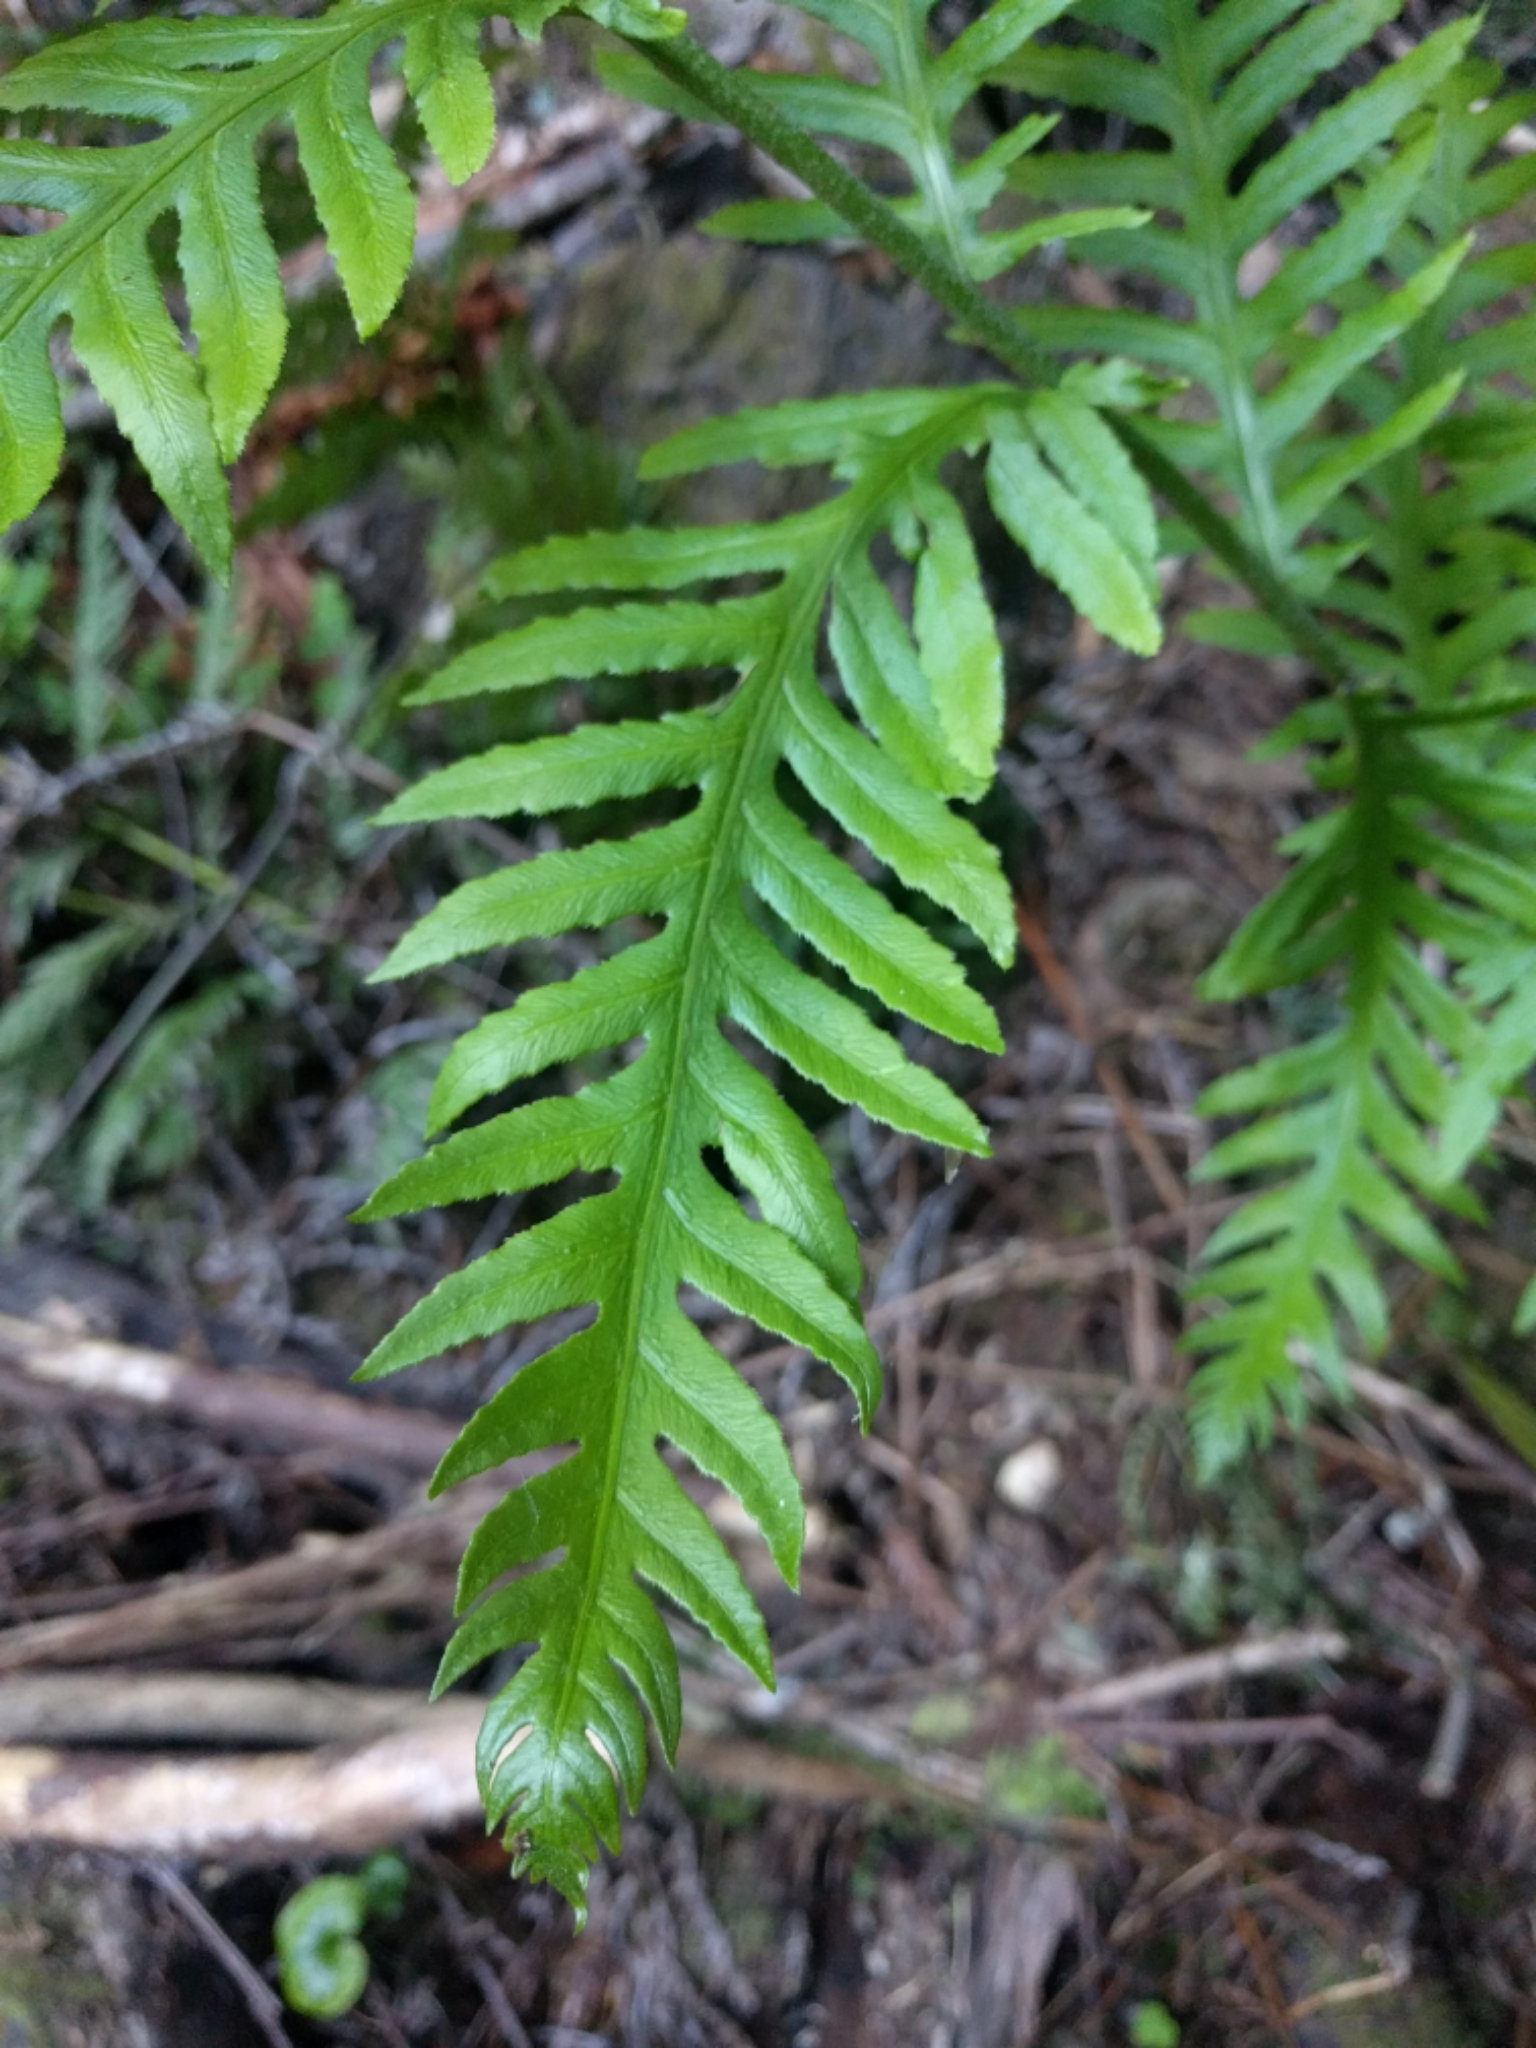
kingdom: Plantae
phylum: Tracheophyta
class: Polypodiopsida
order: Polypodiales
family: Blechnaceae
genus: Woodwardia
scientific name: Woodwardia fimbriata
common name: Giant chain fern
